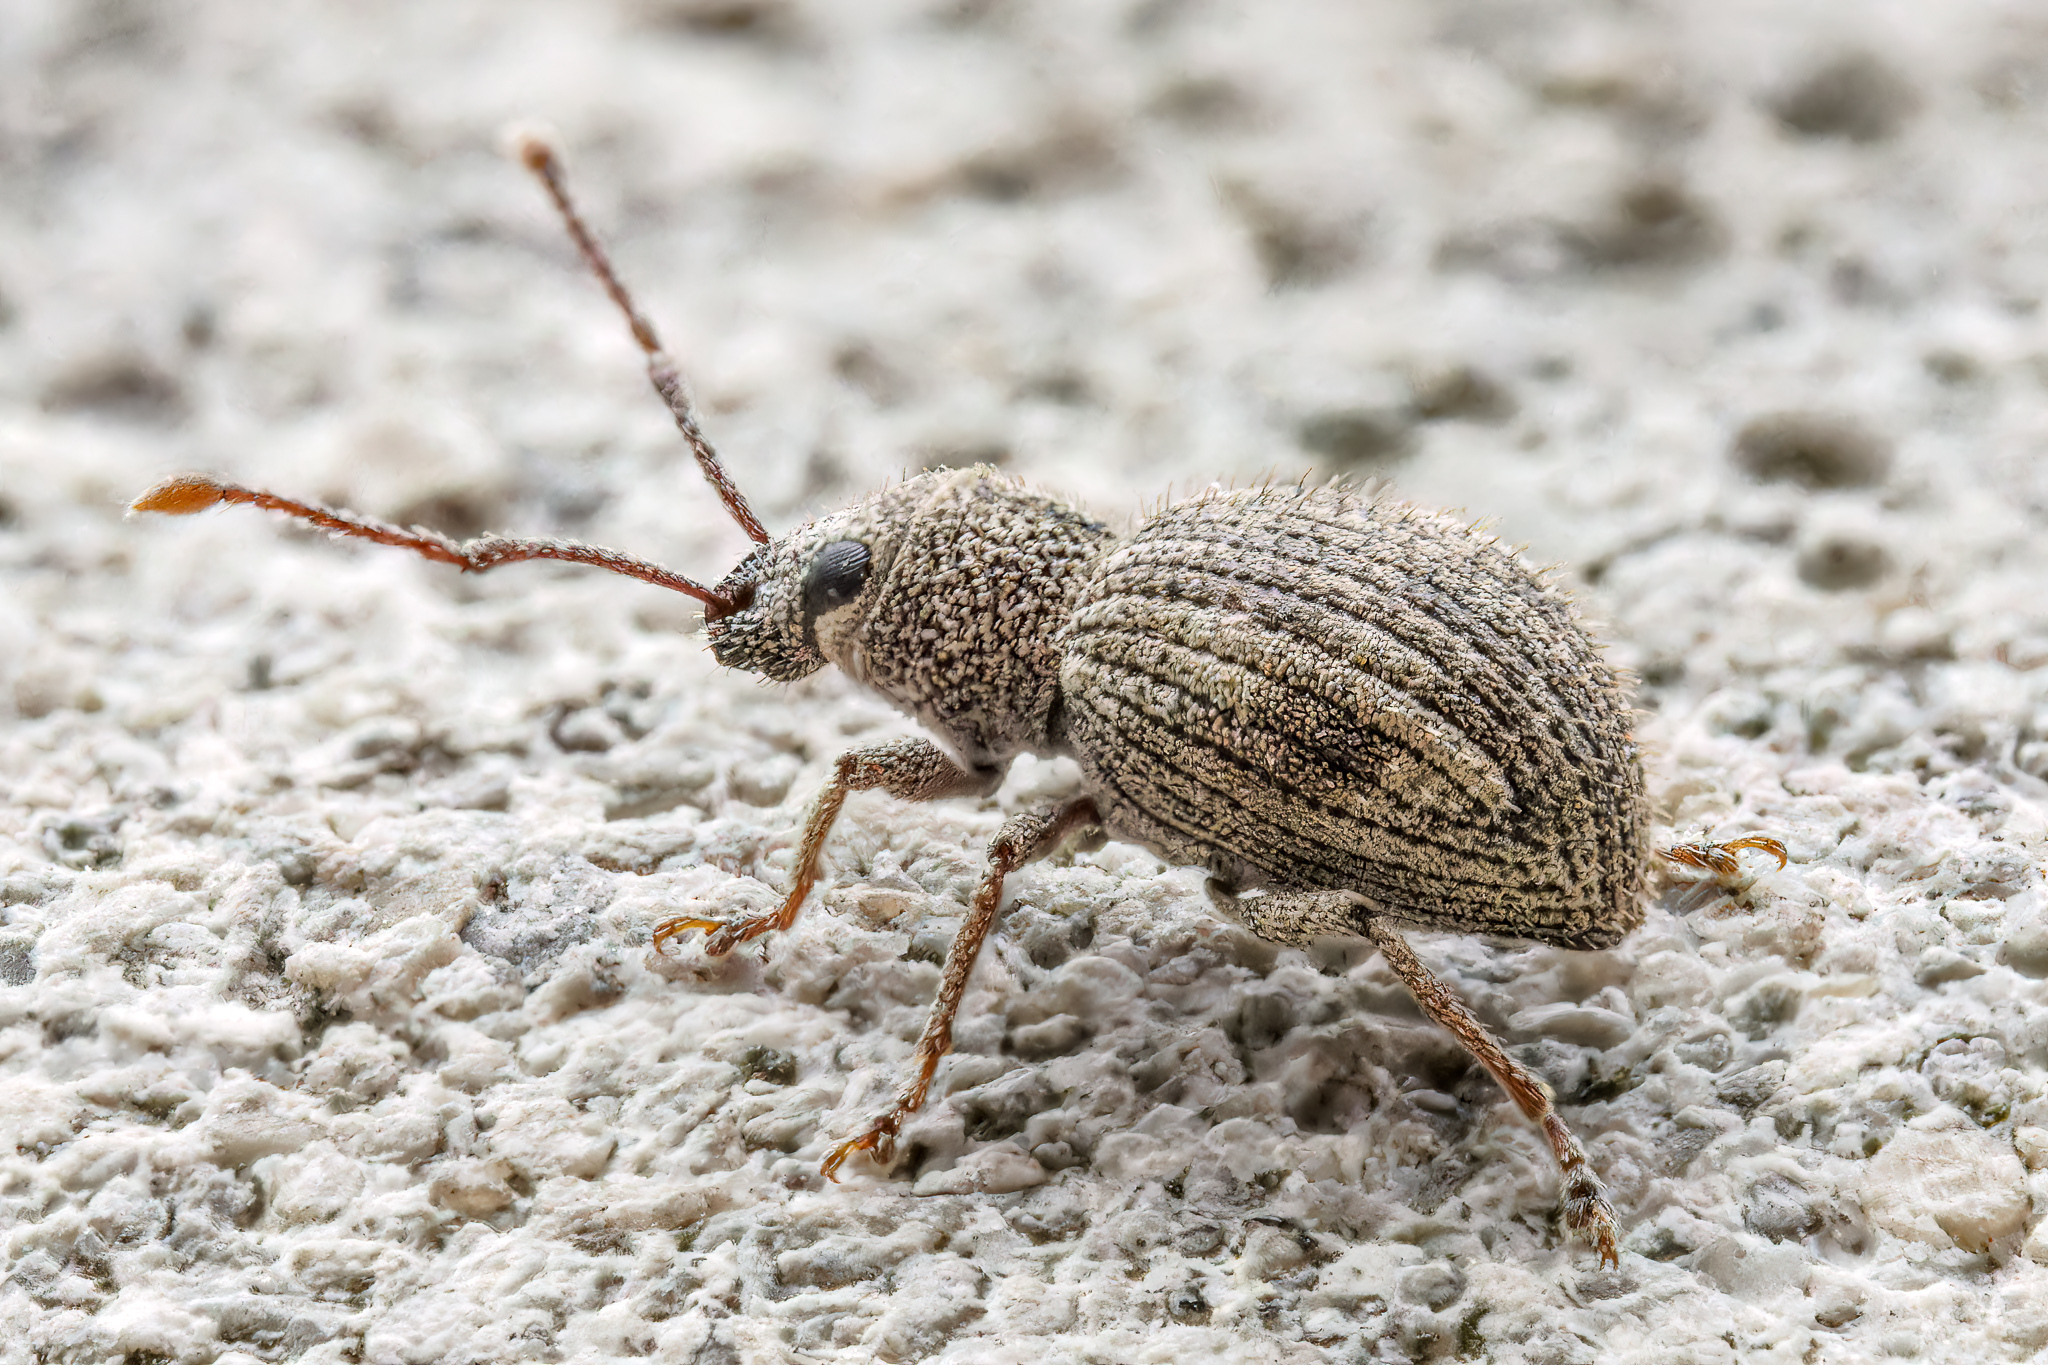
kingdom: Animalia
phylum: Arthropoda
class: Insecta
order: Coleoptera
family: Curculionidae
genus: Calomycterus
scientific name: Calomycterus setarius
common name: Weevil
